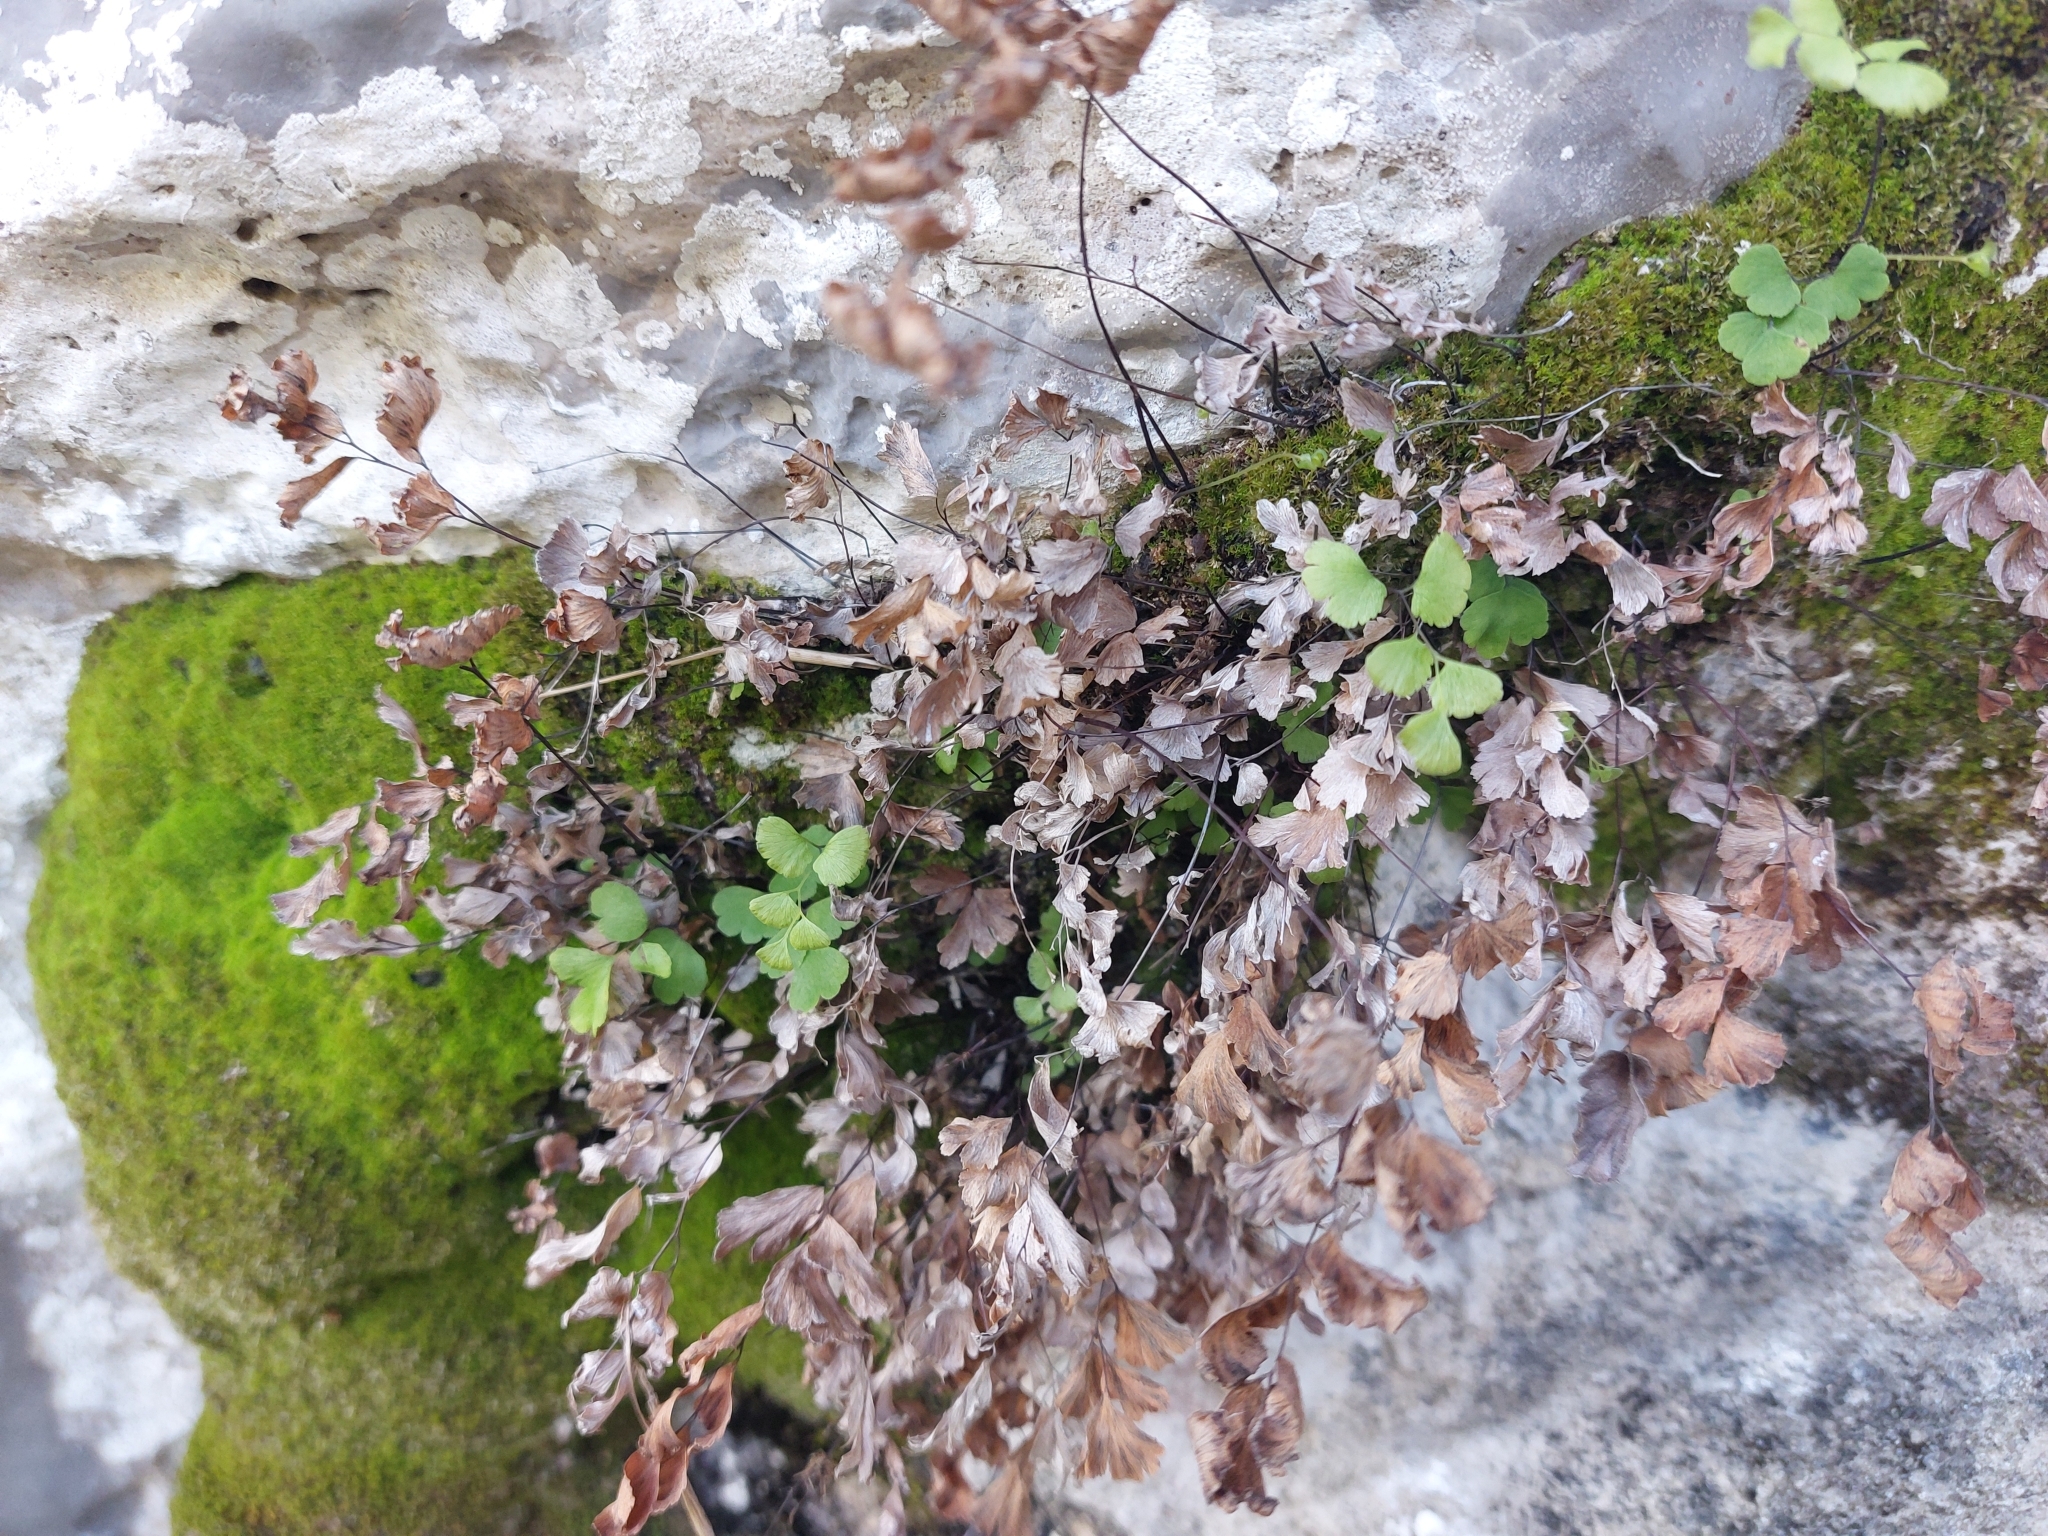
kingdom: Plantae
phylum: Tracheophyta
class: Polypodiopsida
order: Polypodiales
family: Pteridaceae
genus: Adiantum
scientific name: Adiantum capillus-veneris
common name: Maidenhair fern
